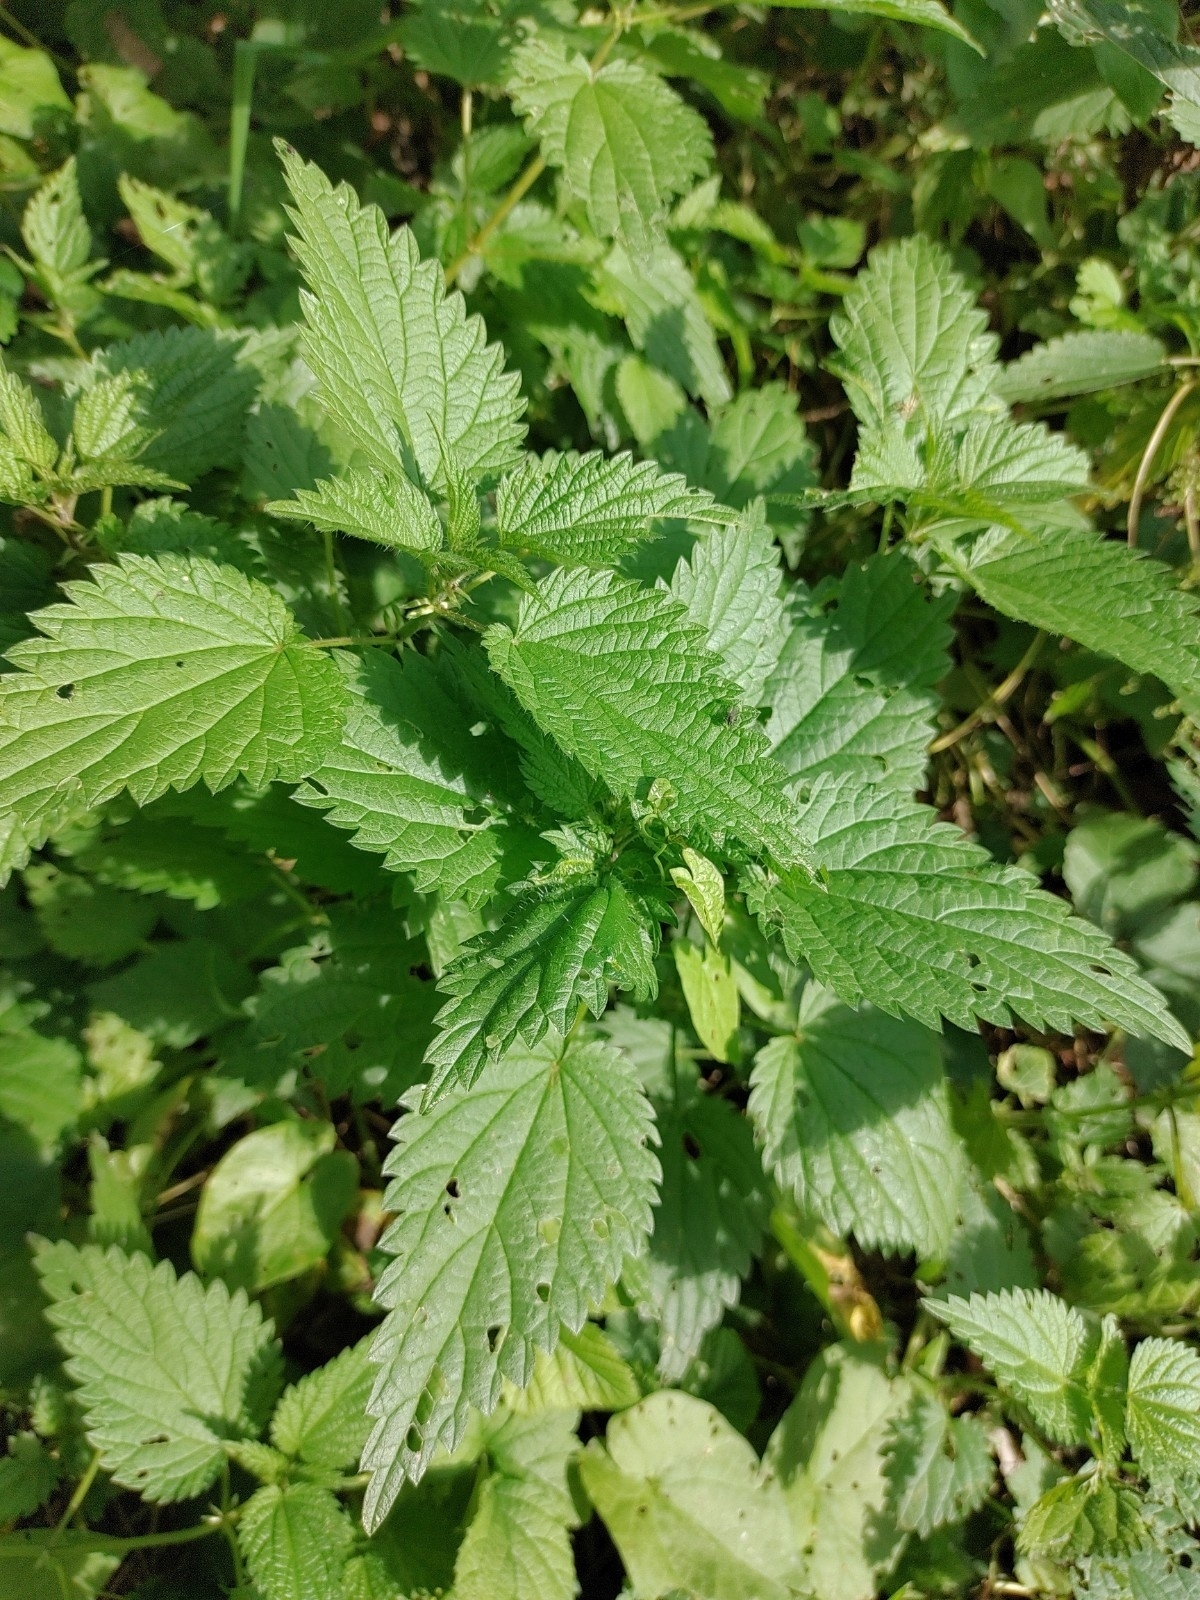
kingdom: Plantae
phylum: Tracheophyta
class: Magnoliopsida
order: Rosales
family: Urticaceae
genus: Urtica
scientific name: Urtica dioica
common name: Common nettle
